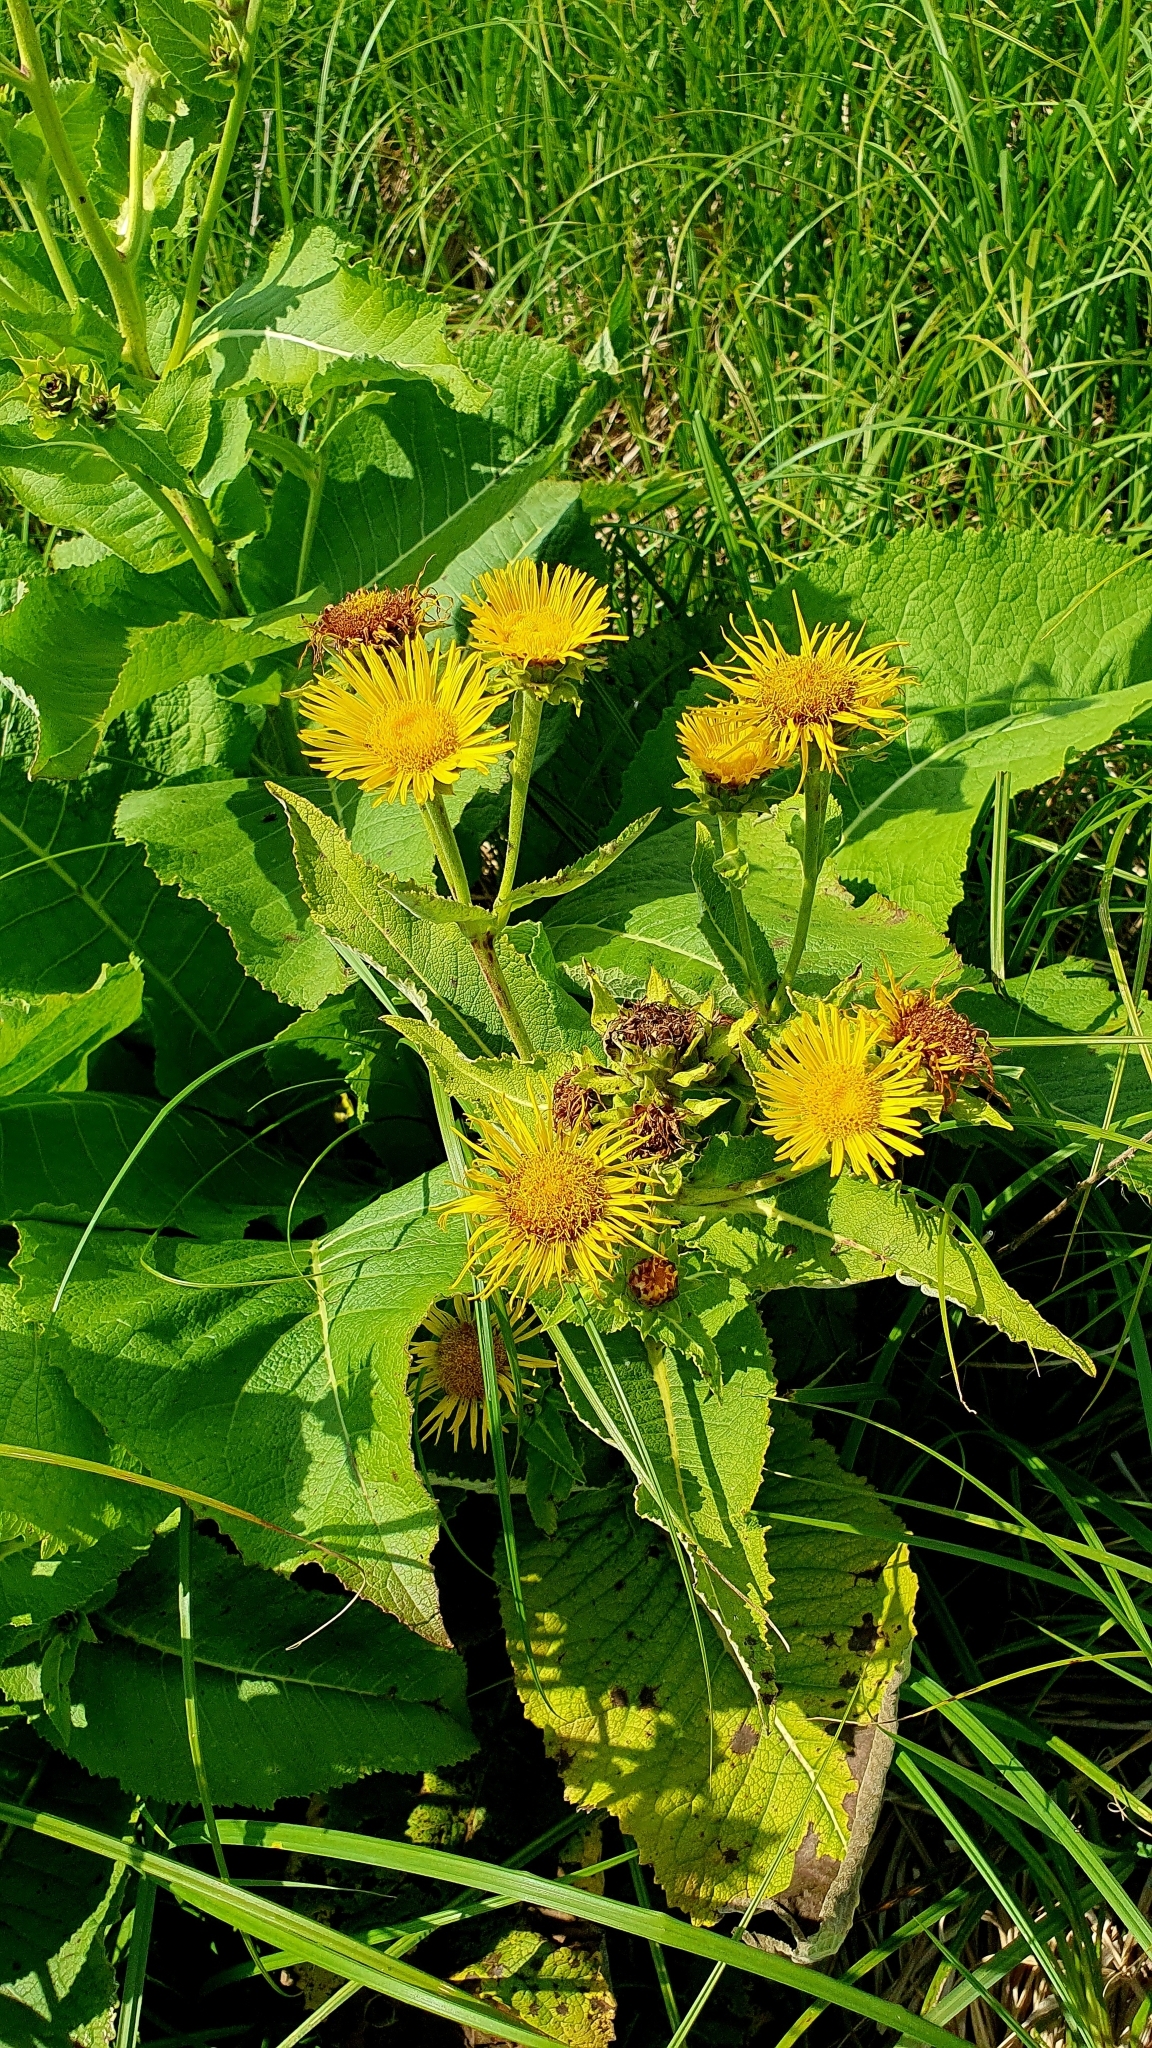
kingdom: Plantae
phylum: Tracheophyta
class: Magnoliopsida
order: Asterales
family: Asteraceae
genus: Inula
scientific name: Inula helenium
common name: Elecampane
